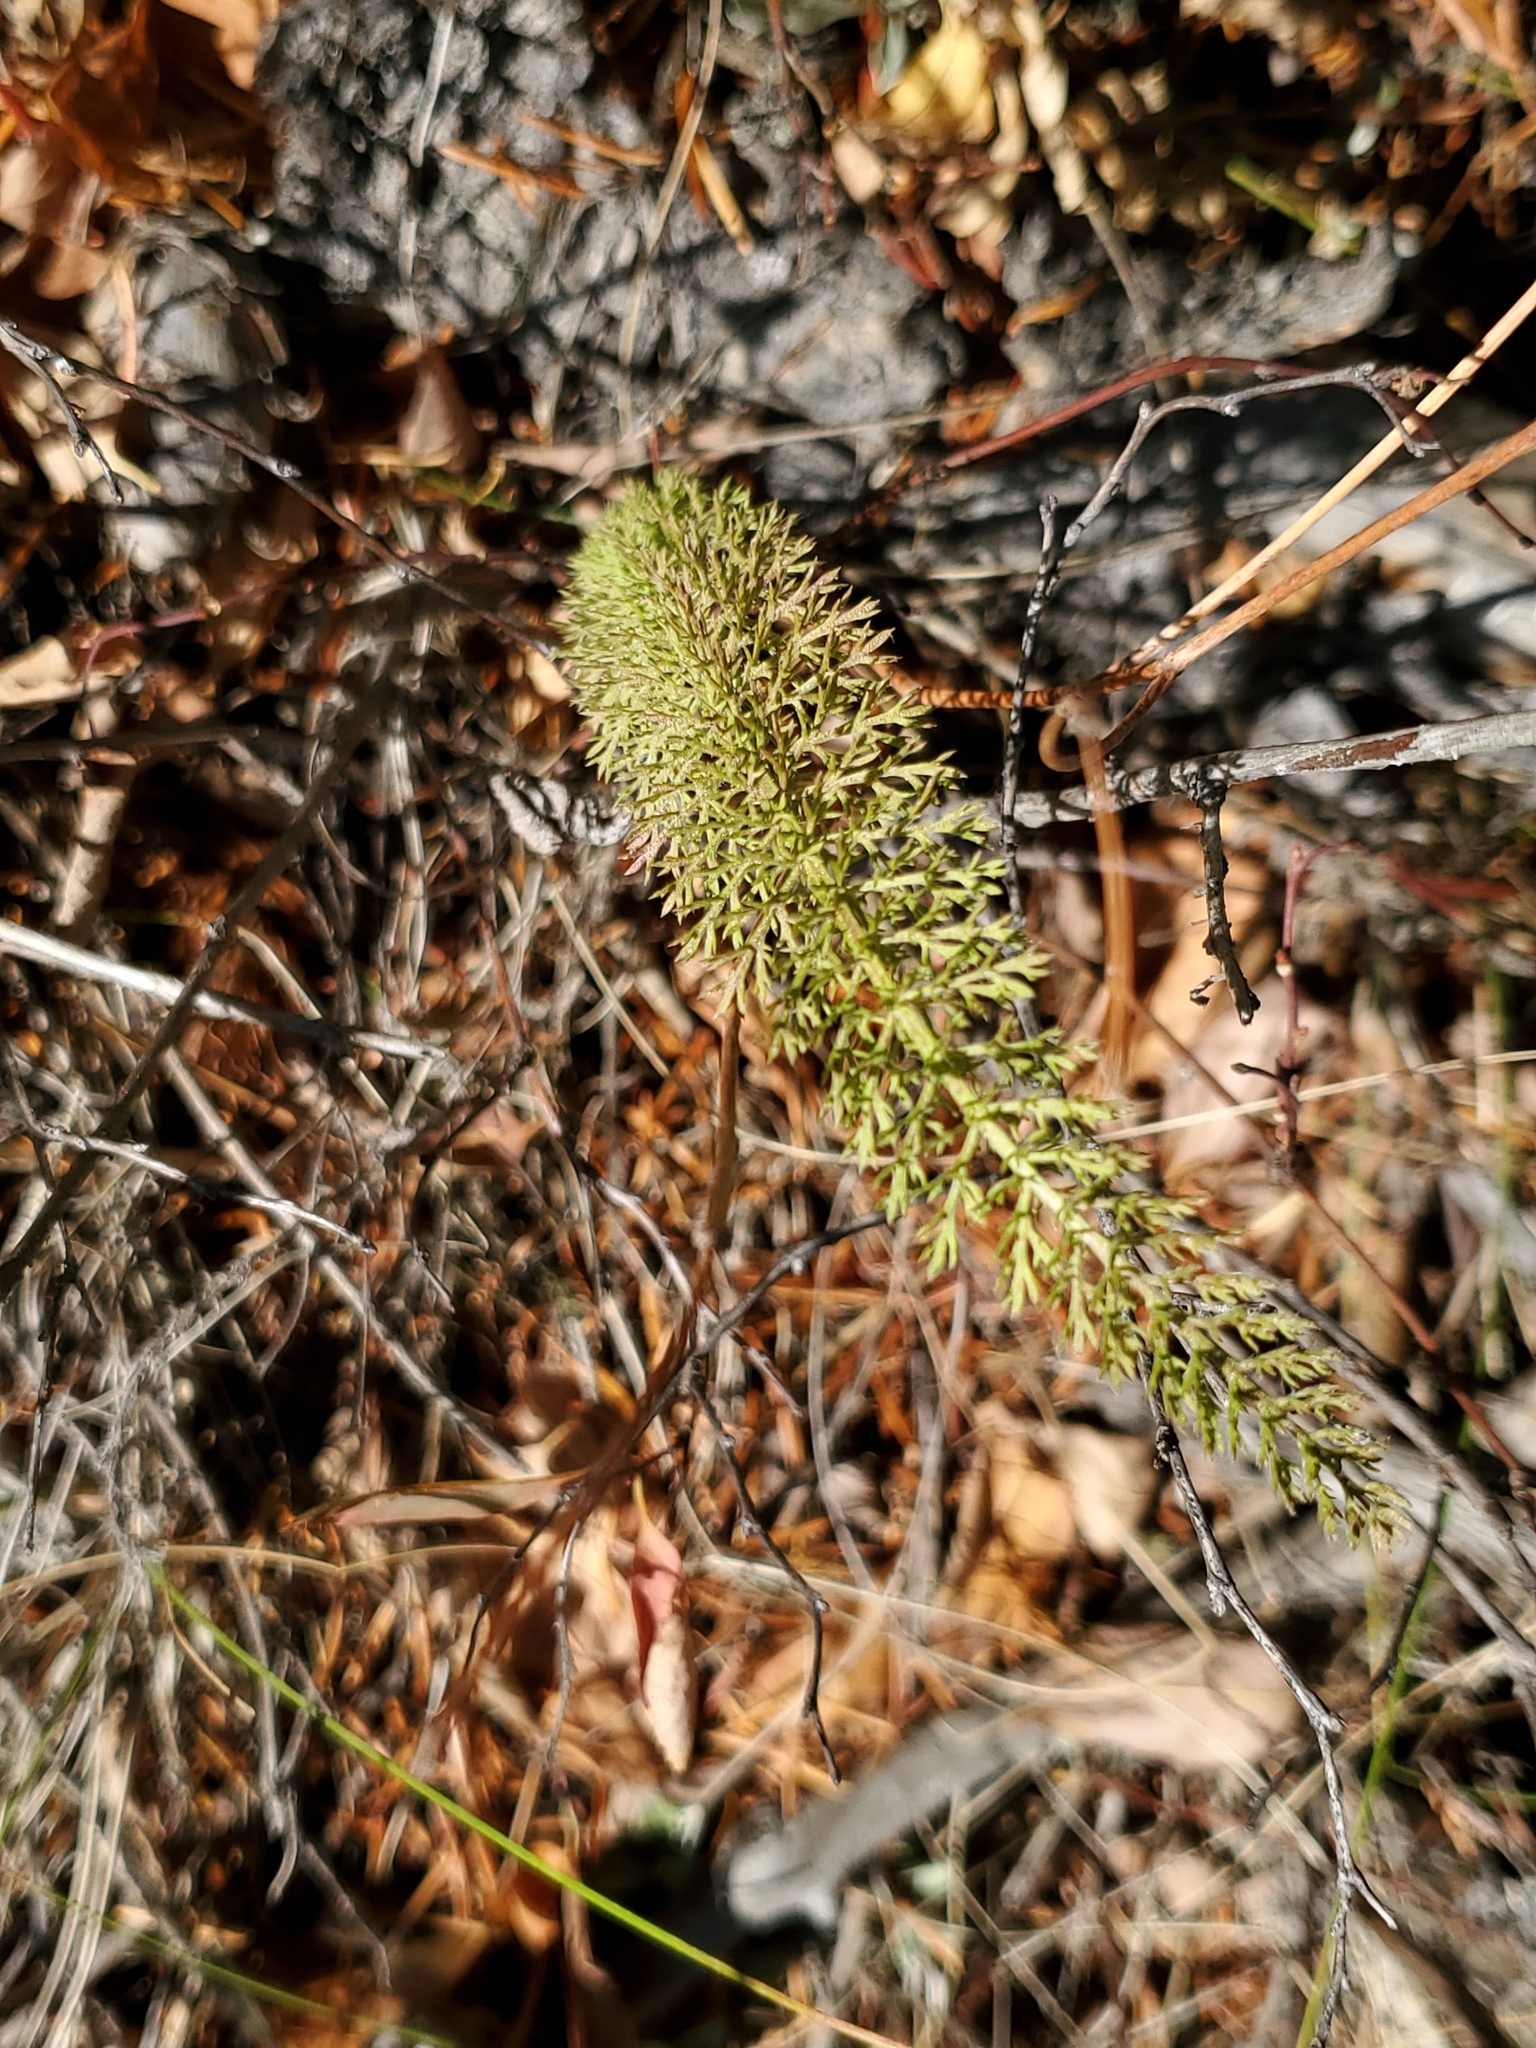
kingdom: Plantae
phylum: Tracheophyta
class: Magnoliopsida
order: Asterales
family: Asteraceae
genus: Achillea
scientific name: Achillea millefolium
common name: Yarrow
